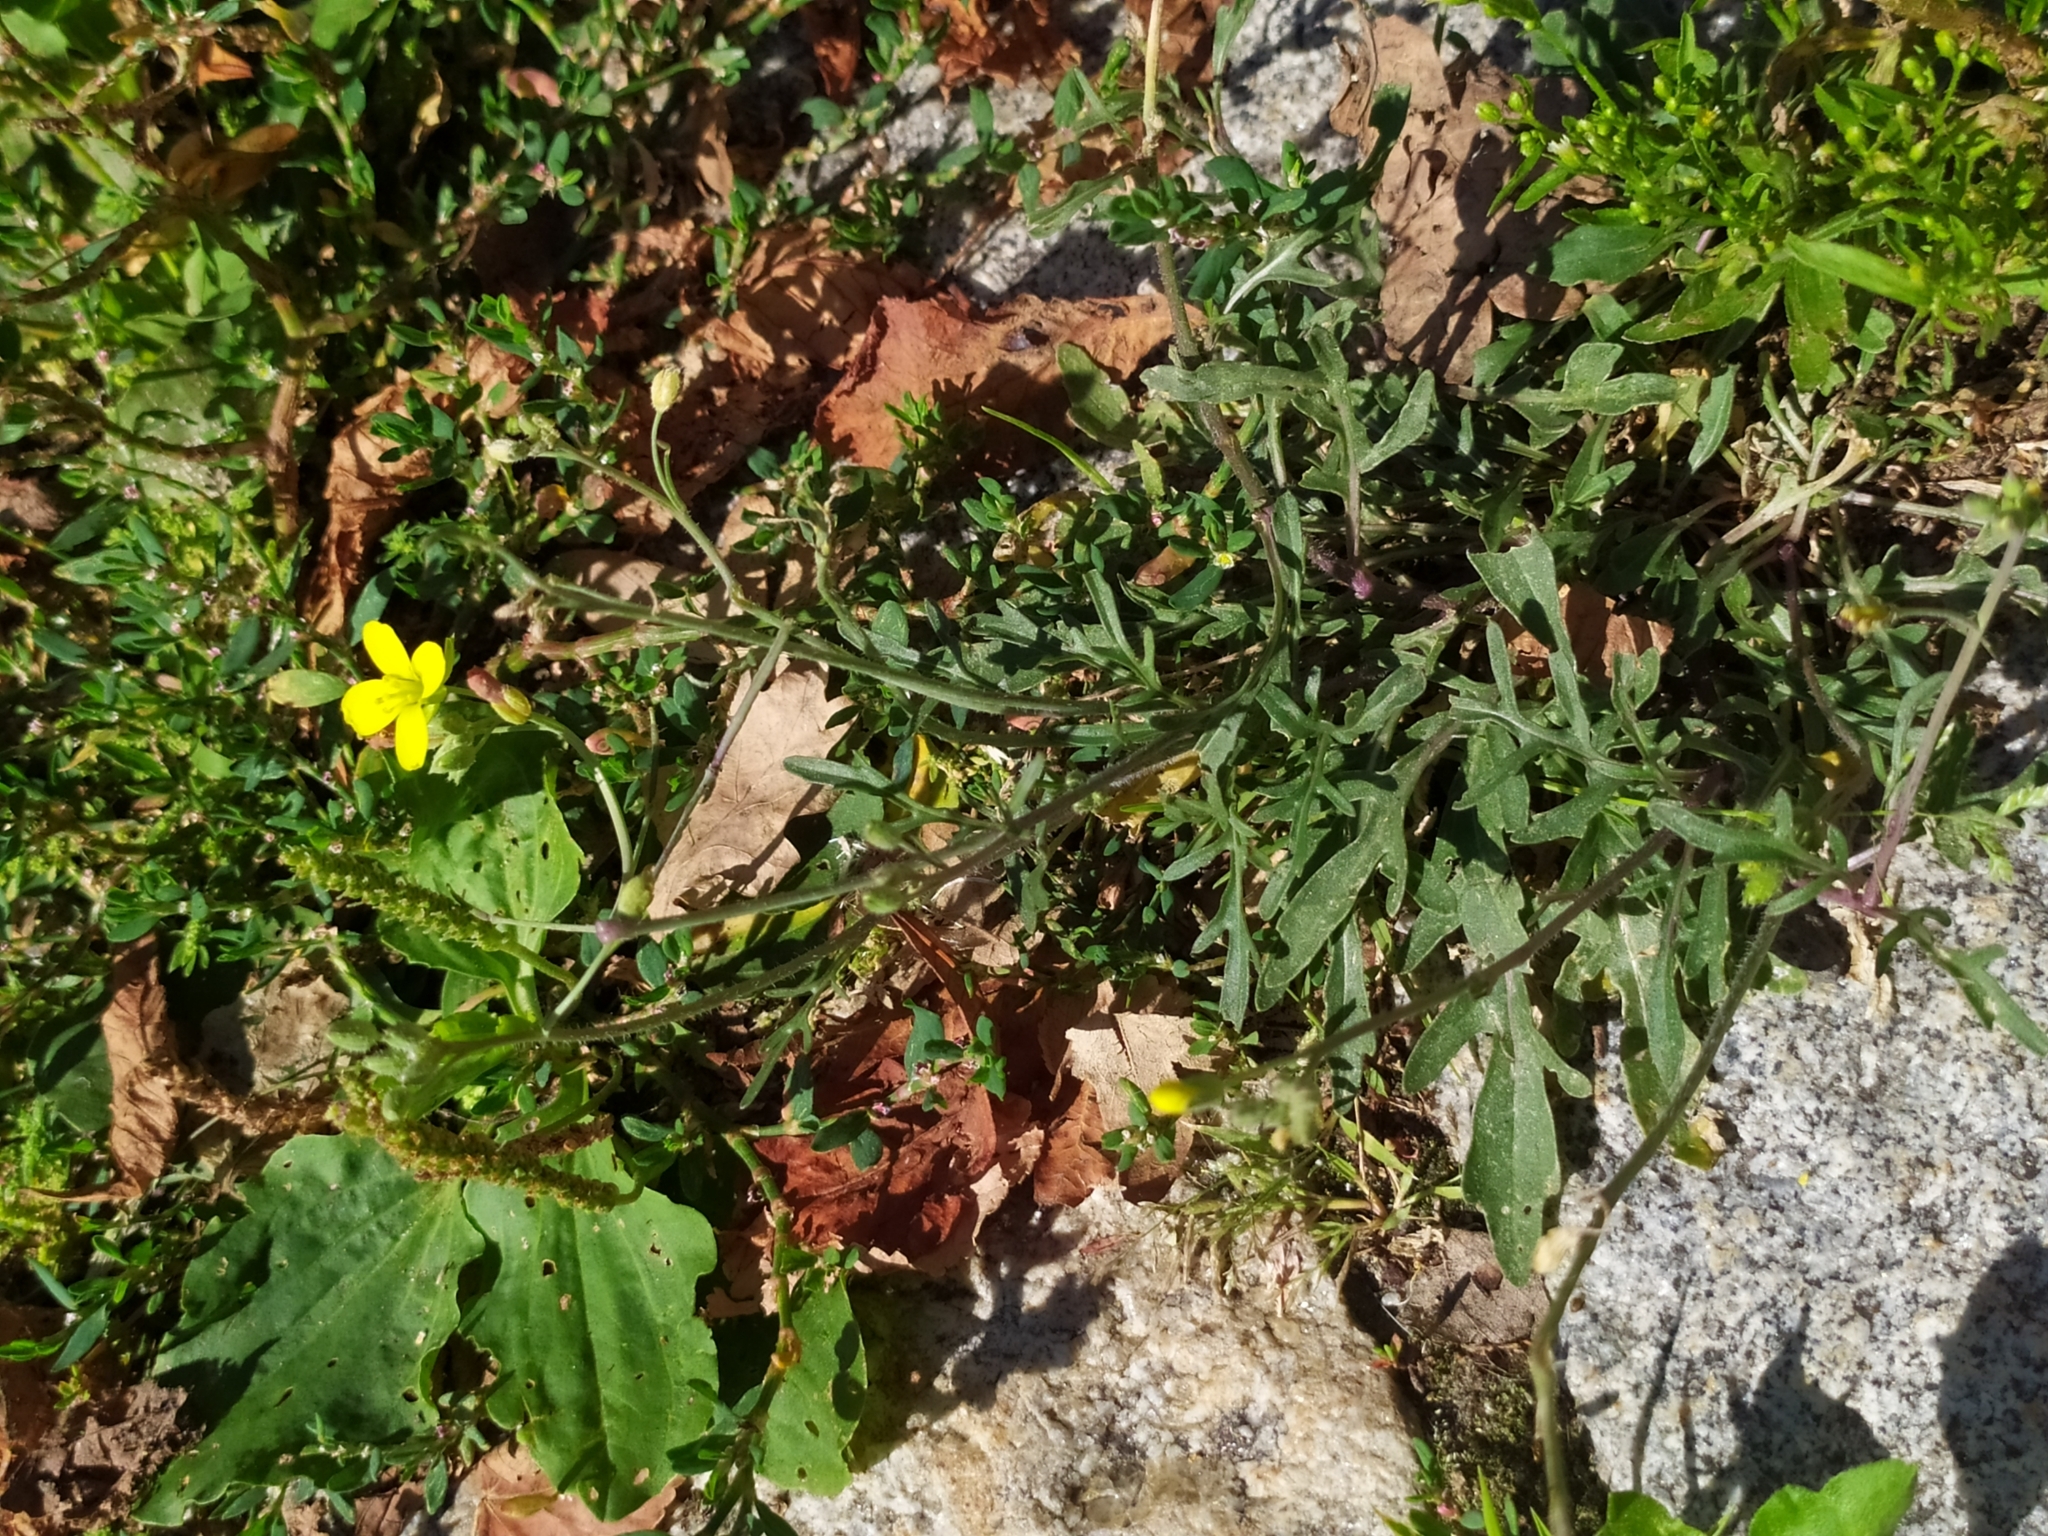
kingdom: Plantae
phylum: Tracheophyta
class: Magnoliopsida
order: Brassicales
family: Brassicaceae
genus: Diplotaxis
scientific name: Diplotaxis tenuifolia
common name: Perennial wall-rocket
